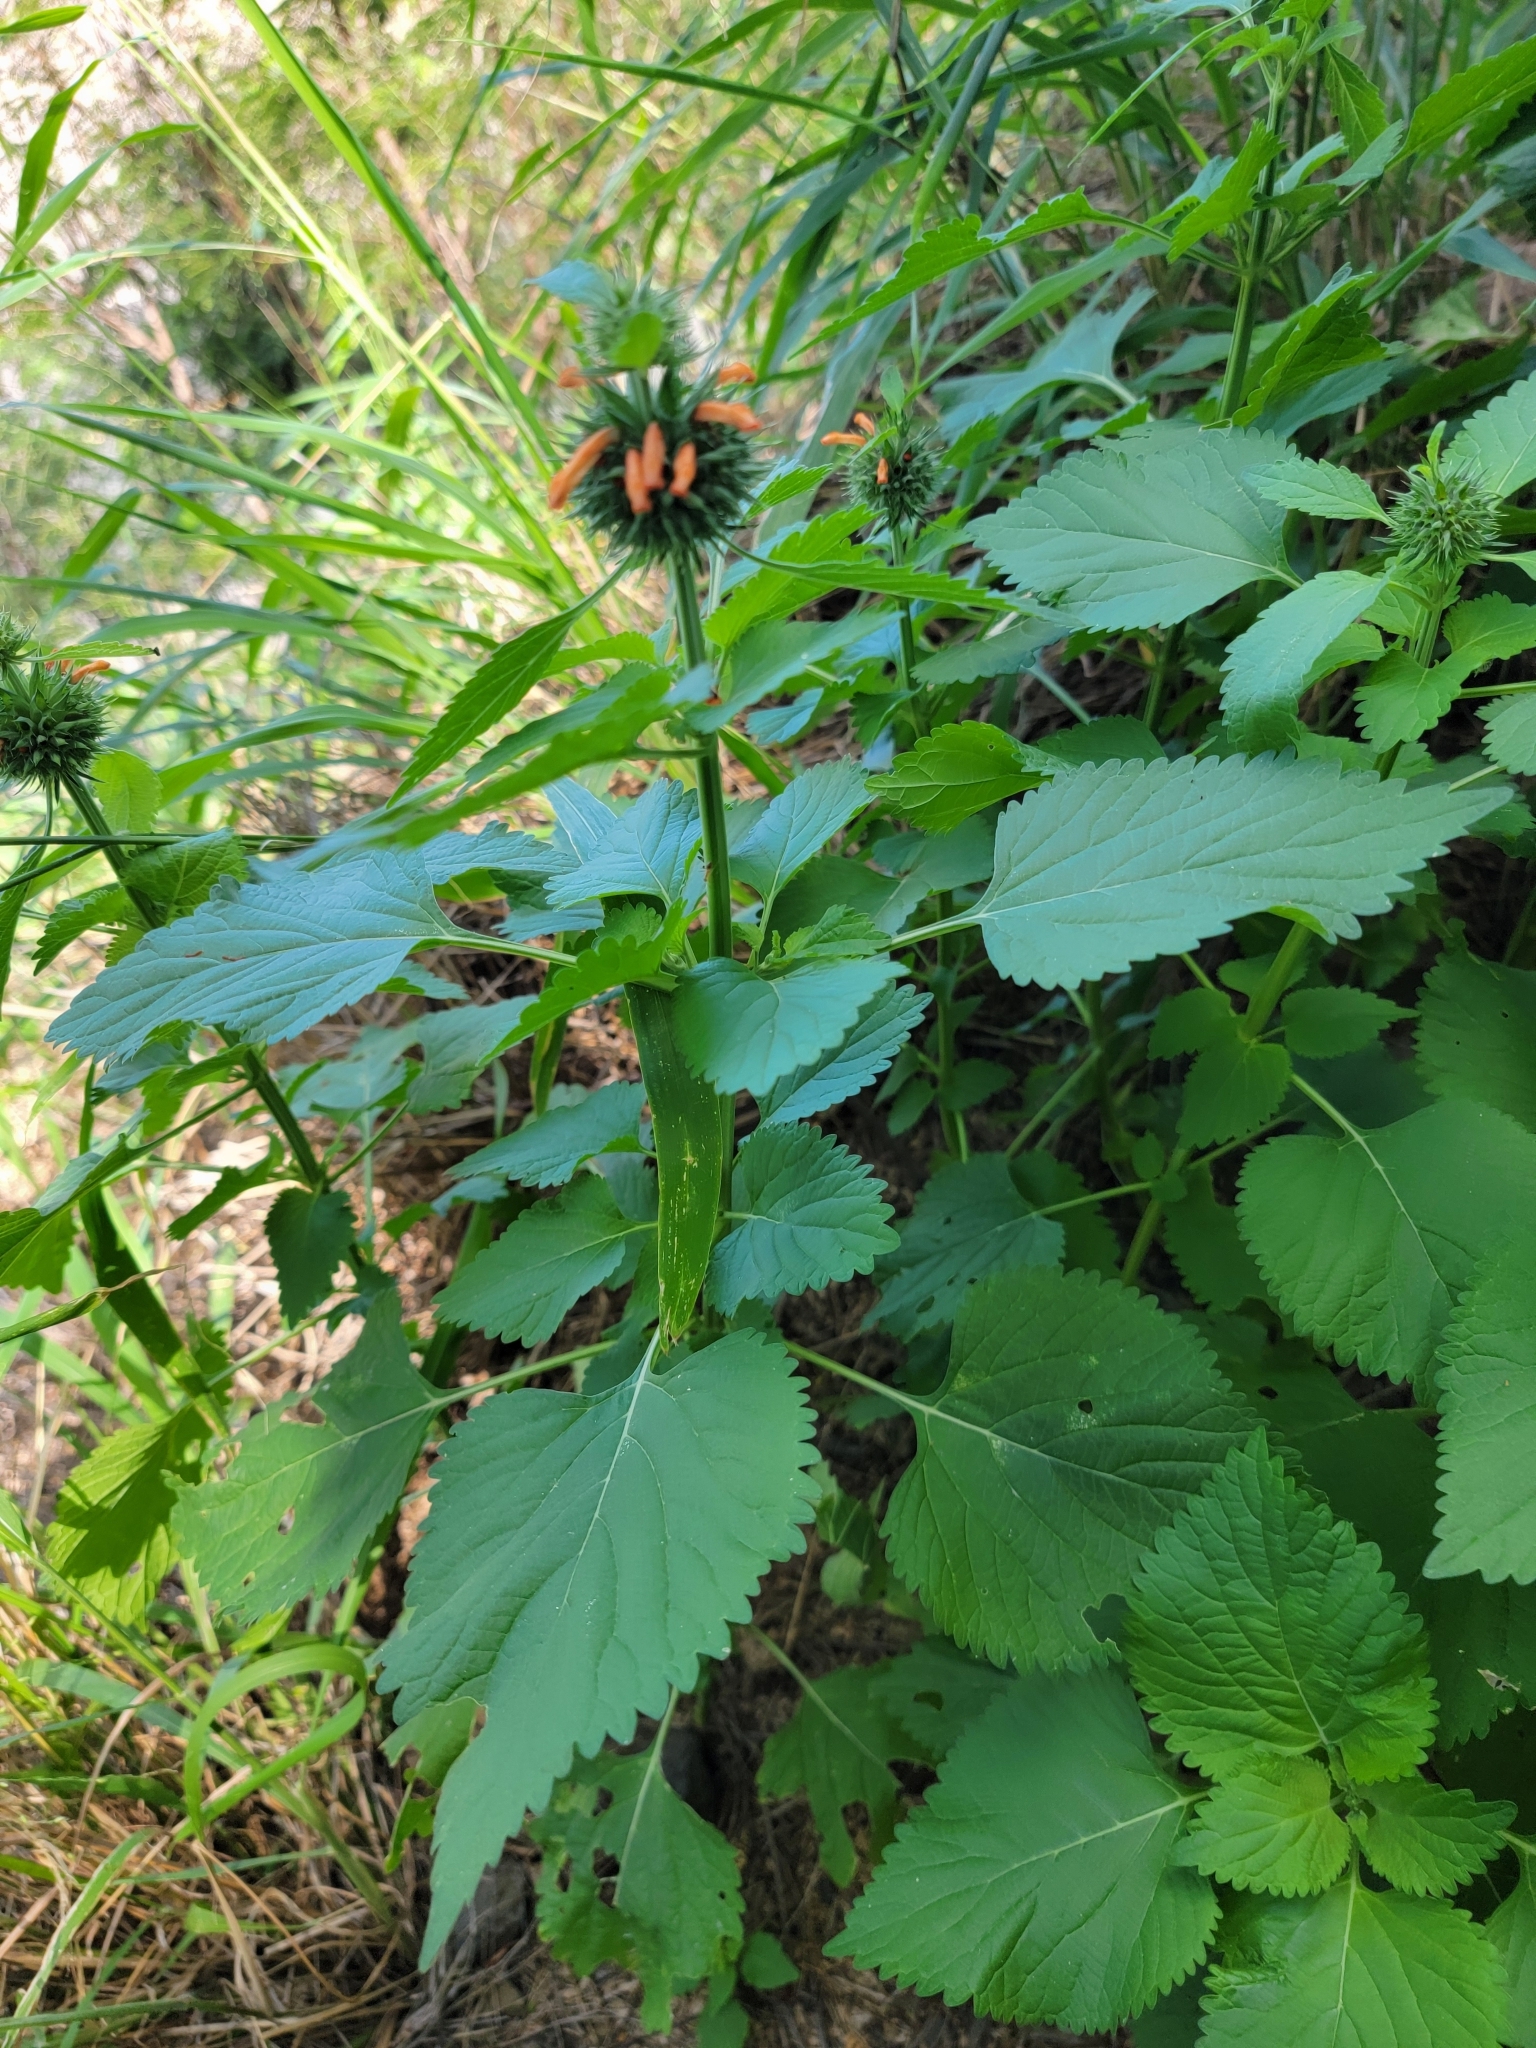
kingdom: Plantae
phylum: Tracheophyta
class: Magnoliopsida
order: Lamiales
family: Lamiaceae
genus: Leonotis
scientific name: Leonotis nepetifolia
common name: Christmas candlestick
